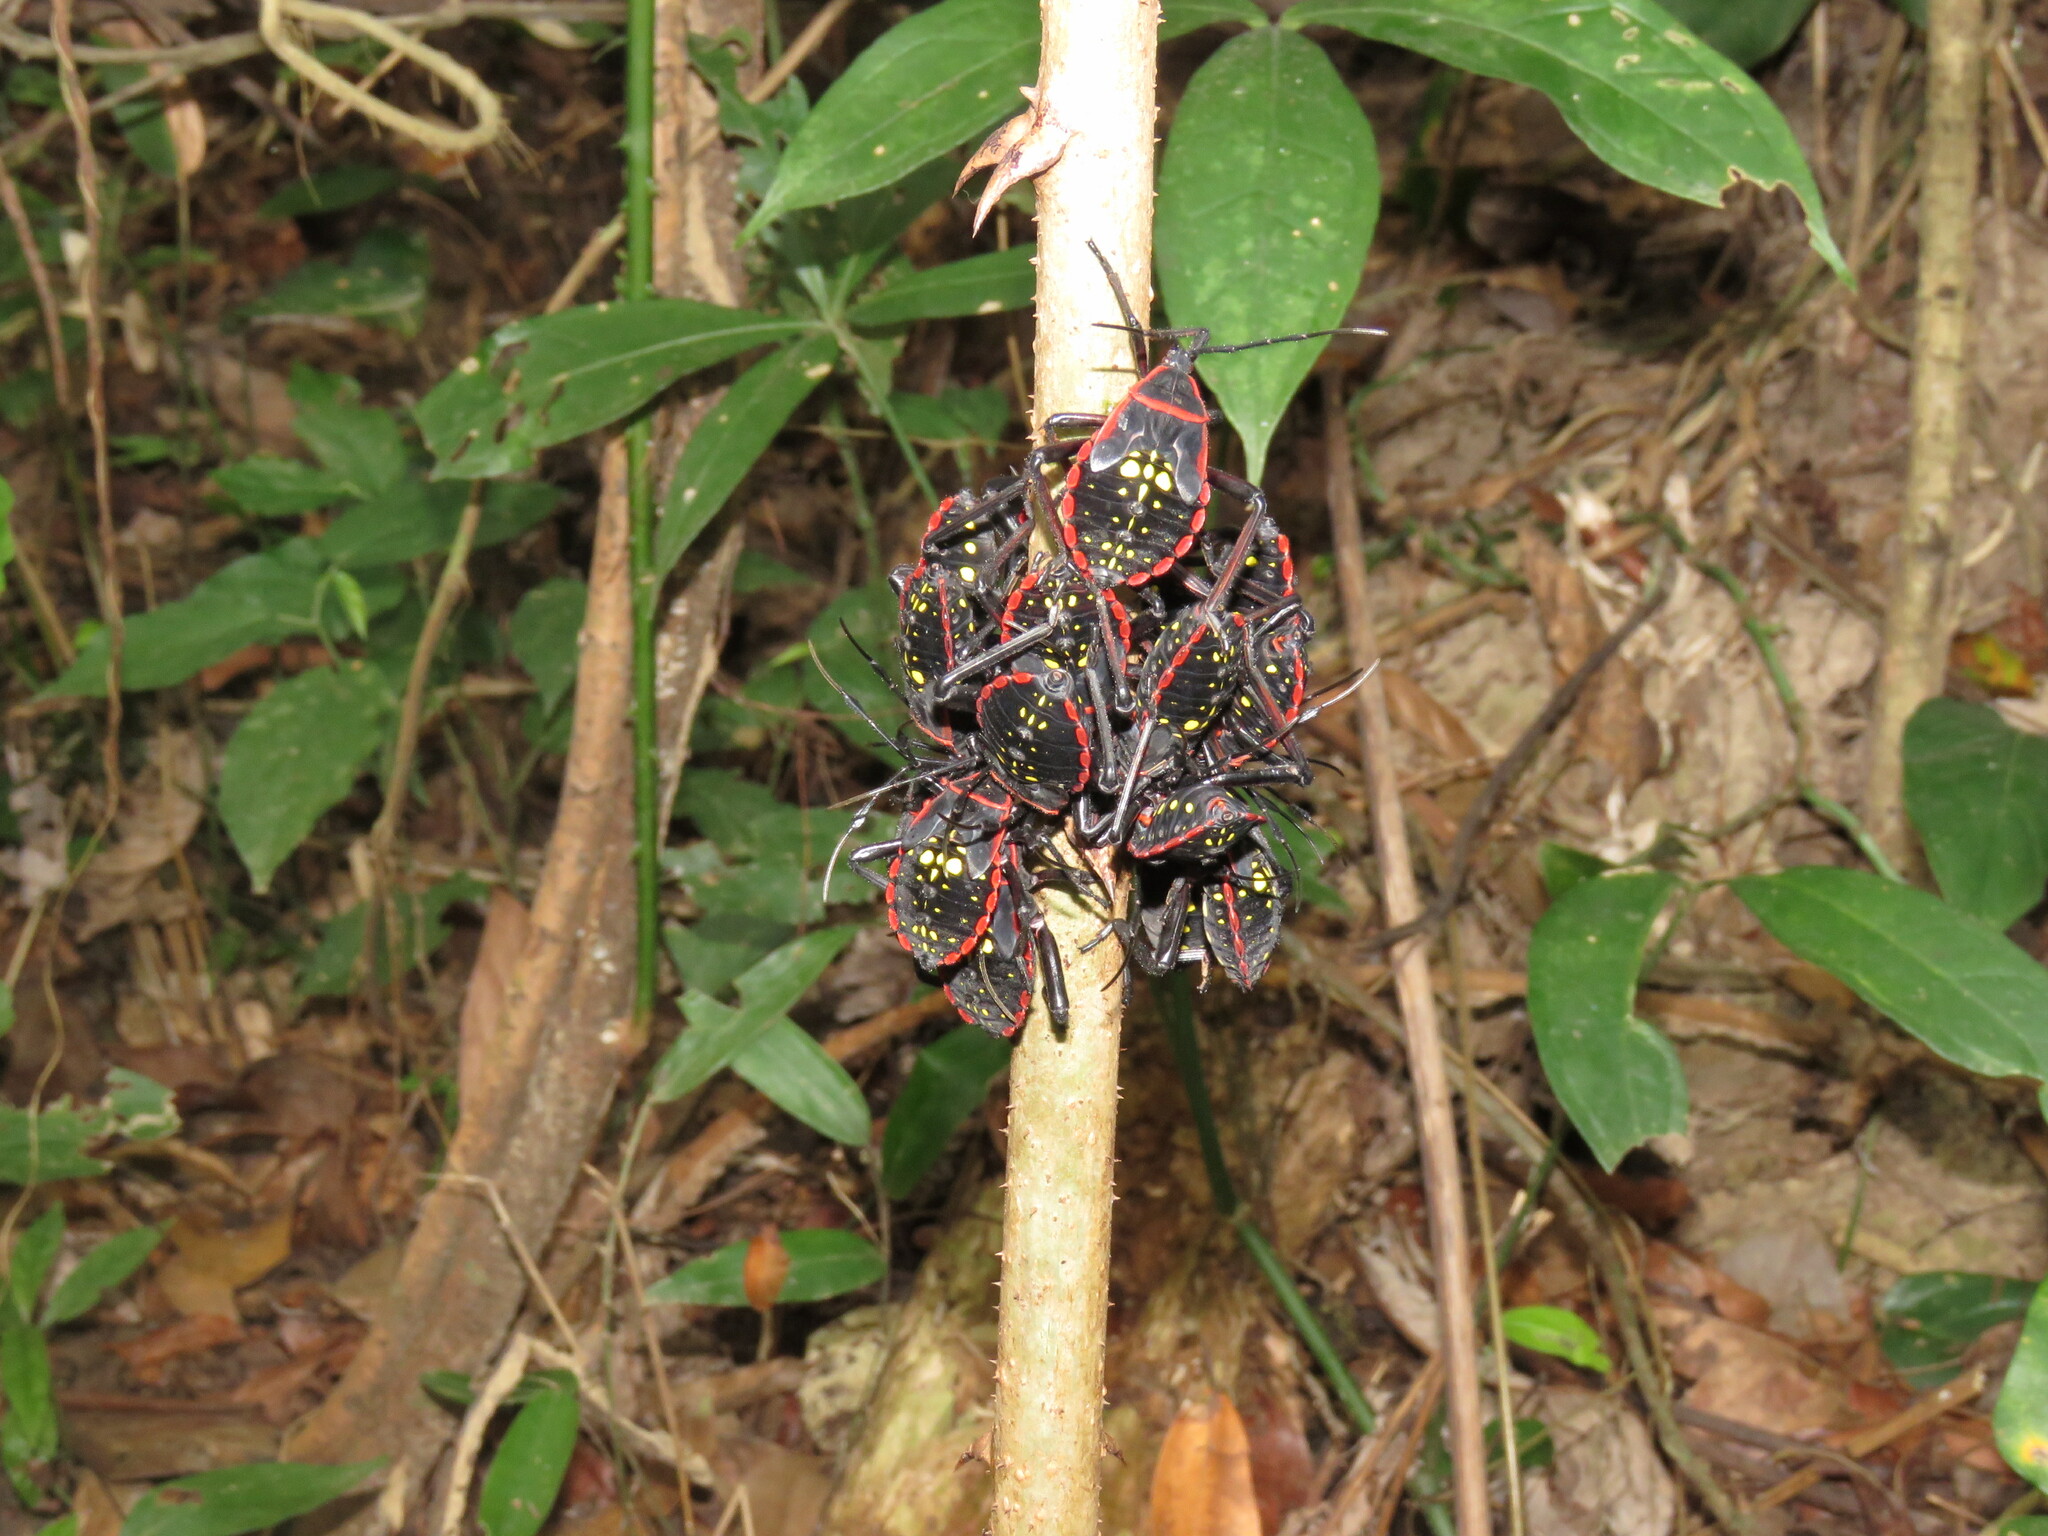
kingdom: Animalia
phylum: Arthropoda
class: Insecta
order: Hemiptera
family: Coreidae
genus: Pachylis
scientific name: Pachylis pharaonis
